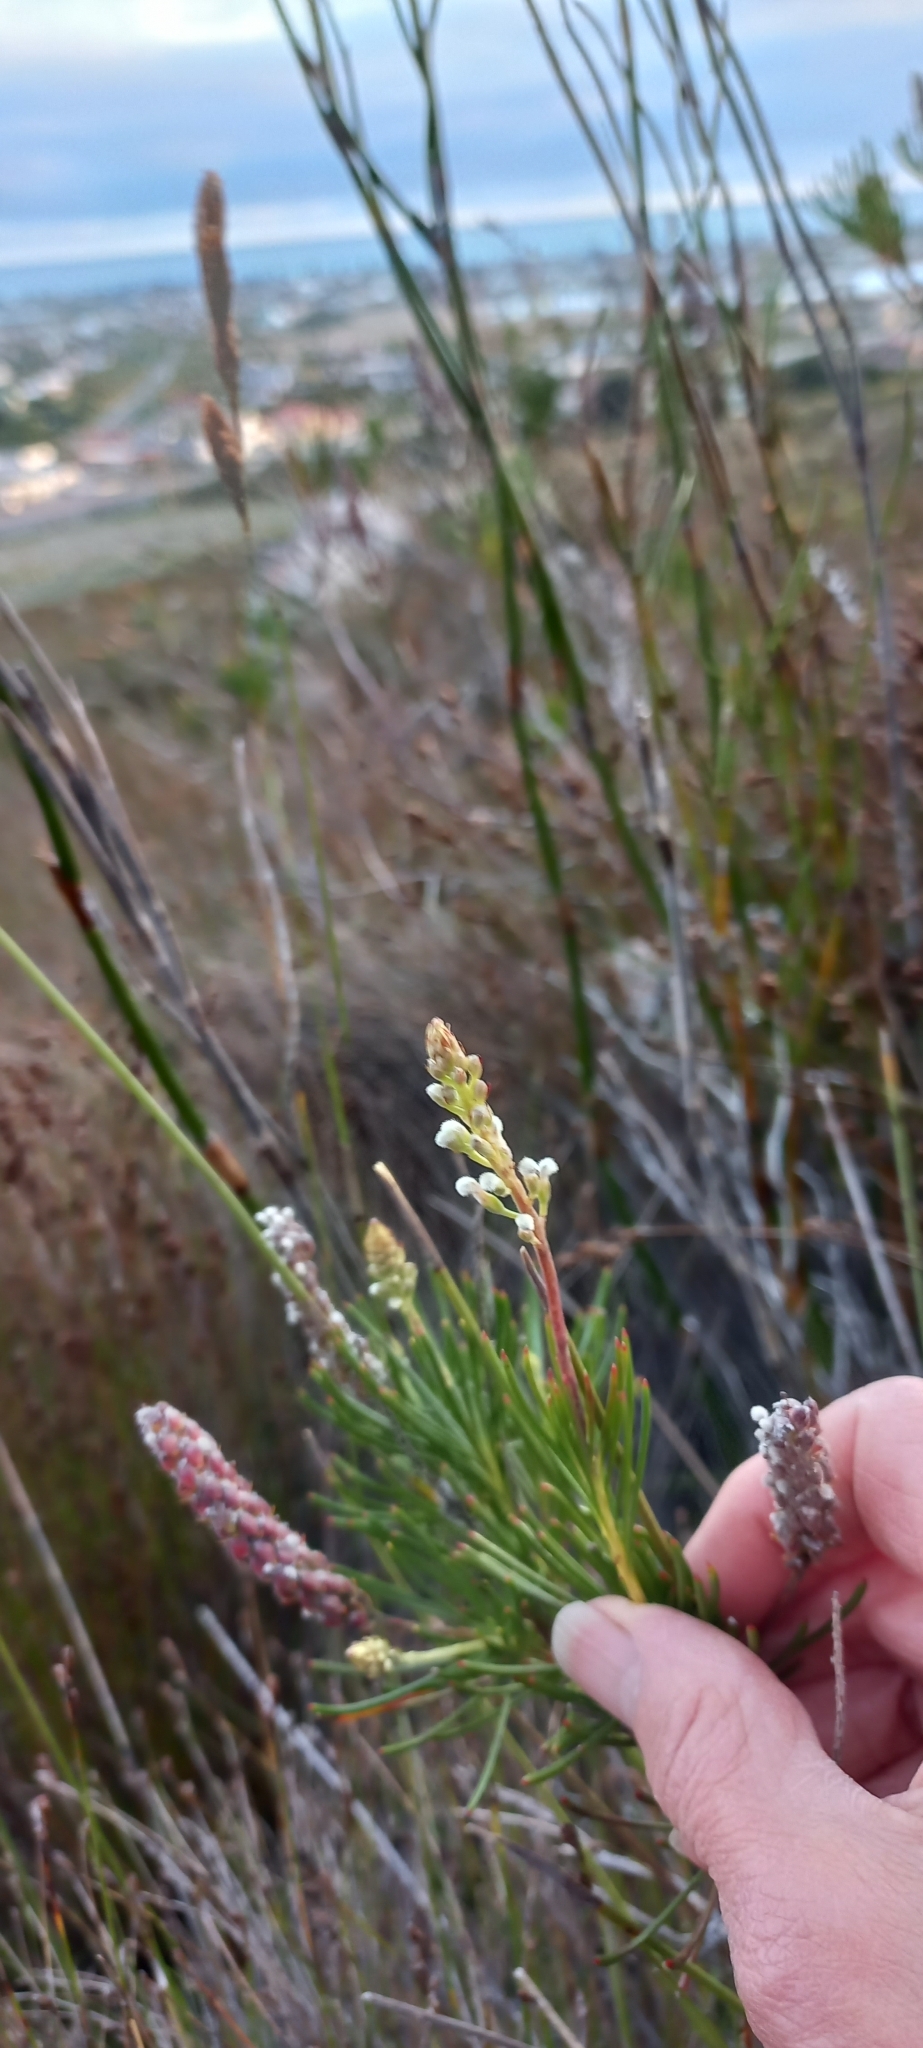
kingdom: Plantae
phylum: Tracheophyta
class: Magnoliopsida
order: Proteales
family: Proteaceae
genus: Spatalla
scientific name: Spatalla curvifolia
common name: White-stalked spoon
